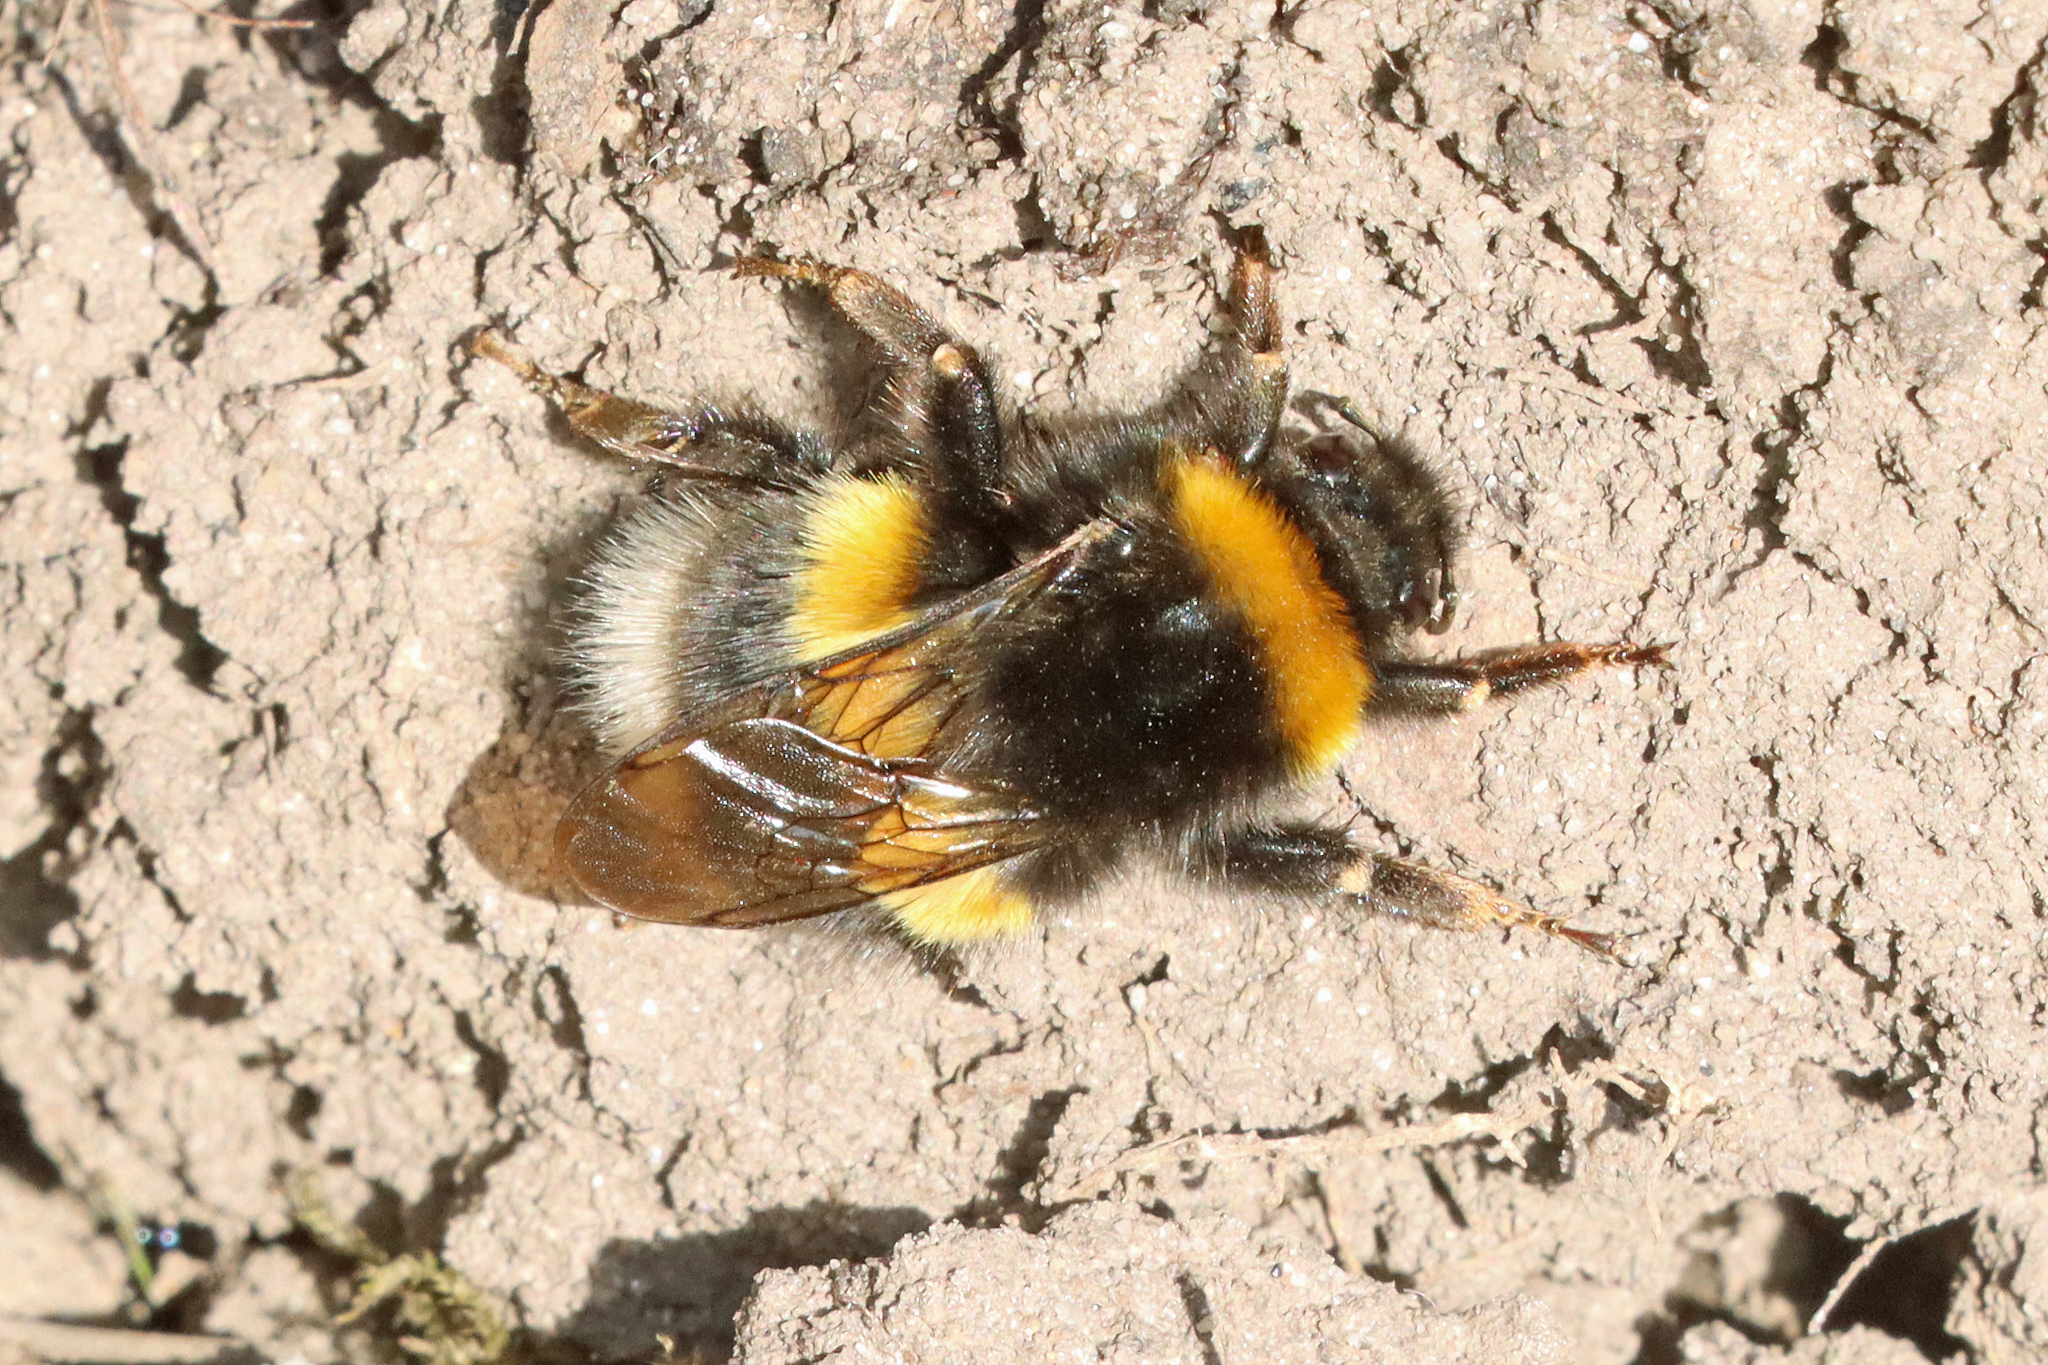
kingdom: Animalia
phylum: Arthropoda
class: Insecta
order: Hymenoptera
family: Apidae
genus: Bombus
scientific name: Bombus
